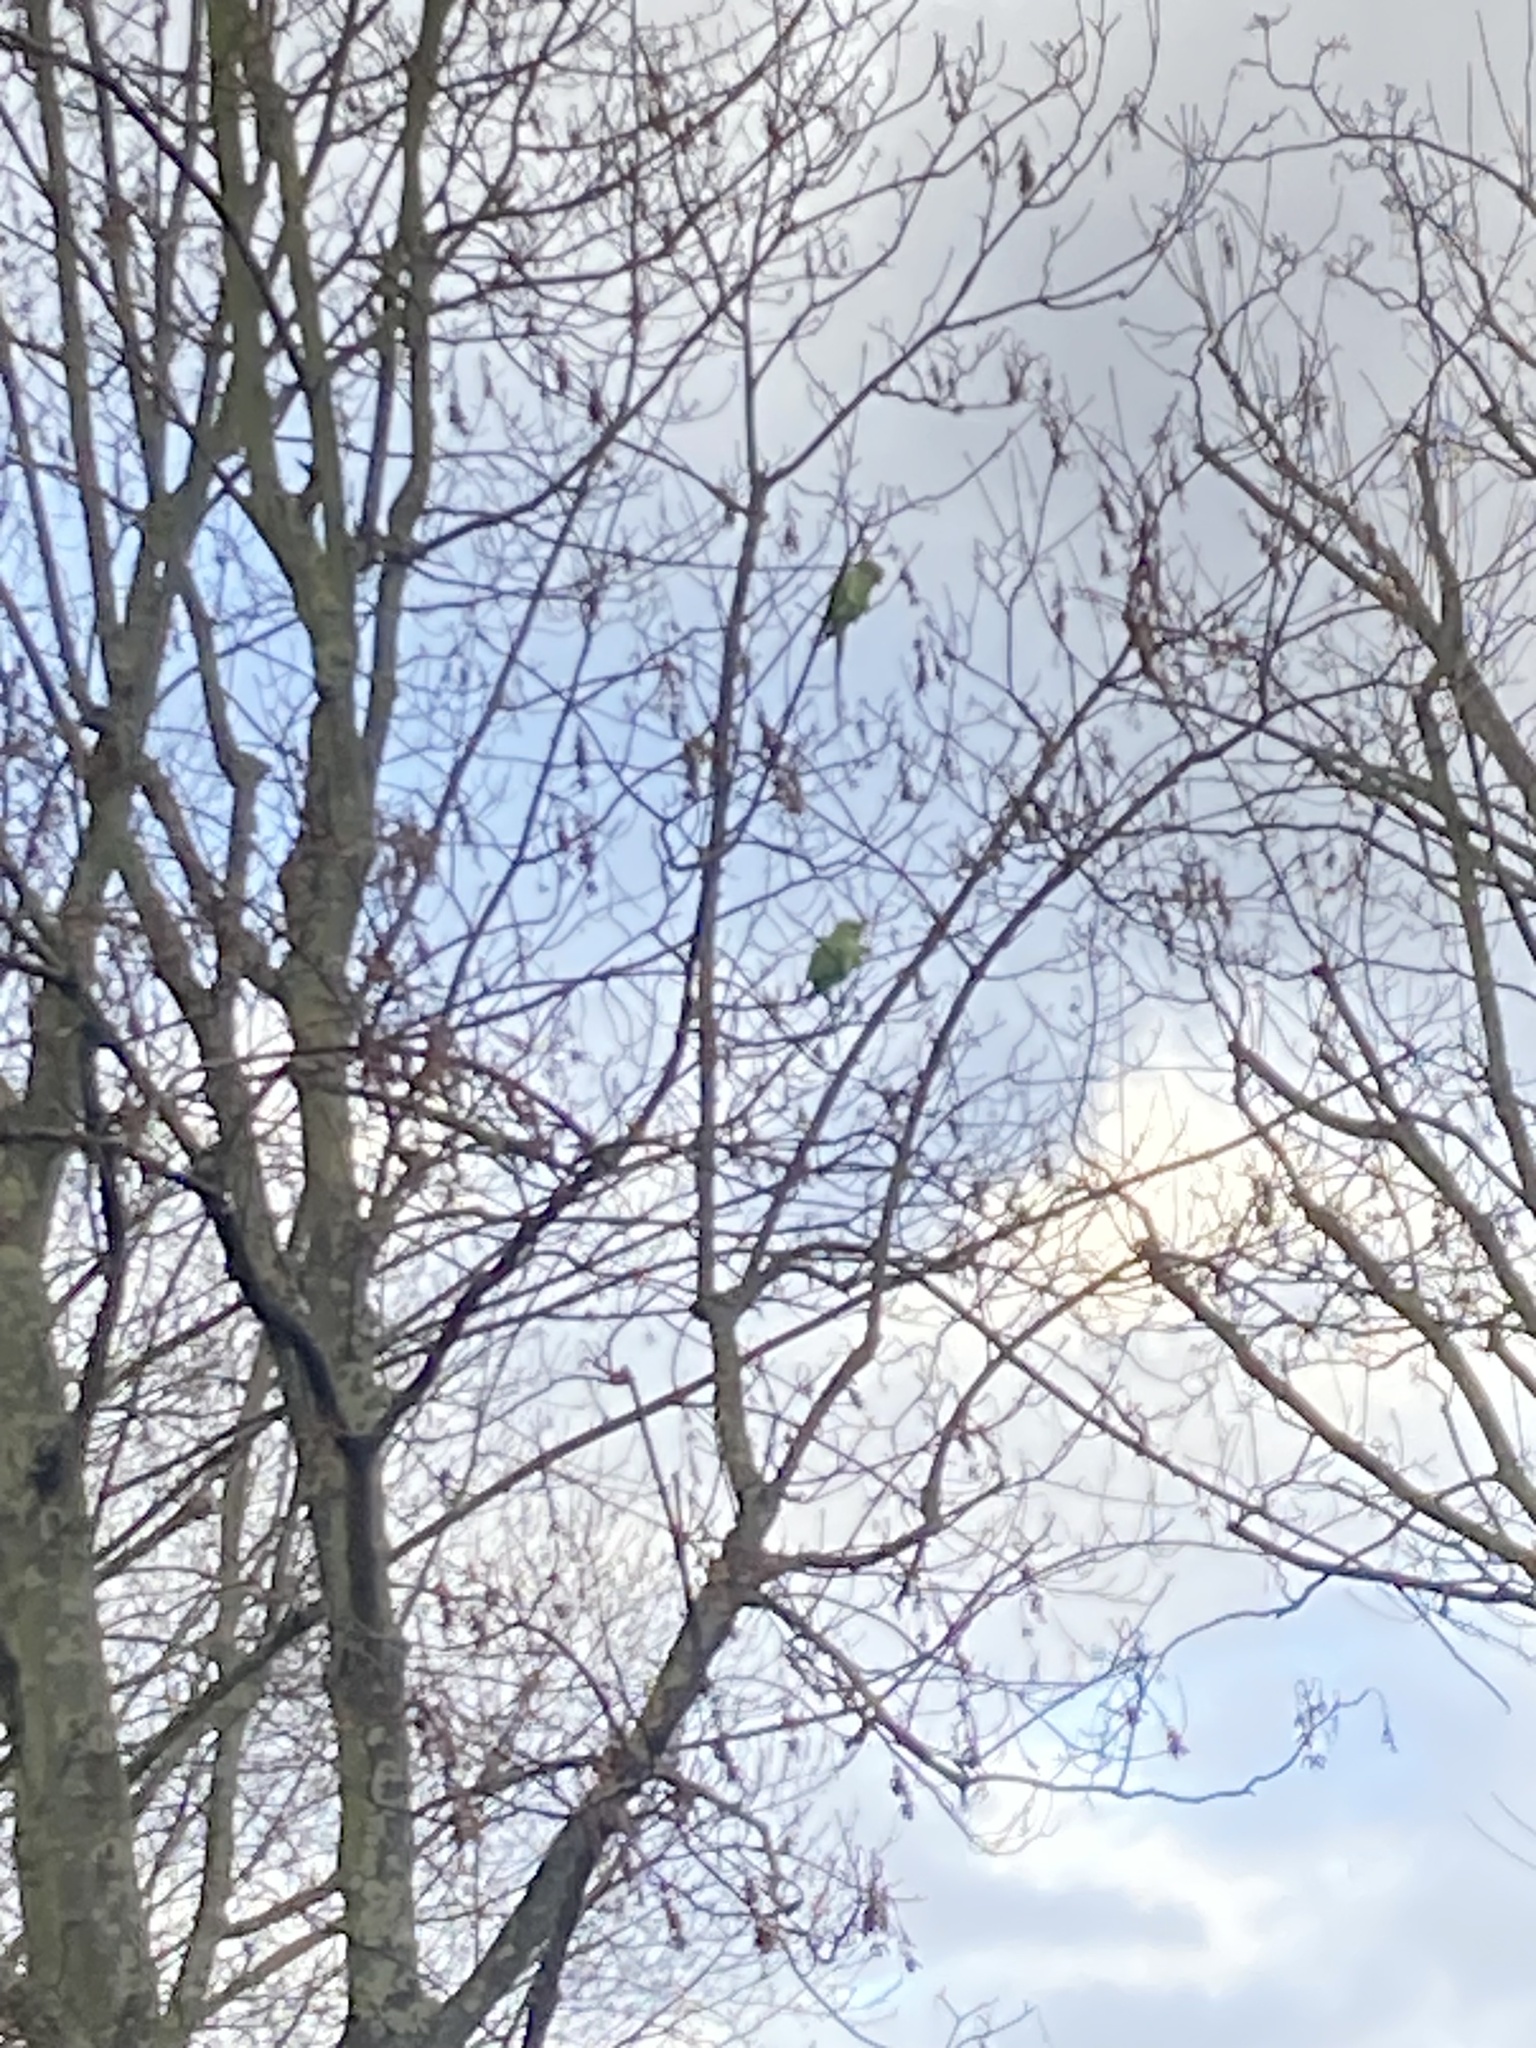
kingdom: Animalia
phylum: Chordata
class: Aves
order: Psittaciformes
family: Psittacidae
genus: Psittacula
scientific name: Psittacula krameri
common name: Rose-ringed parakeet
